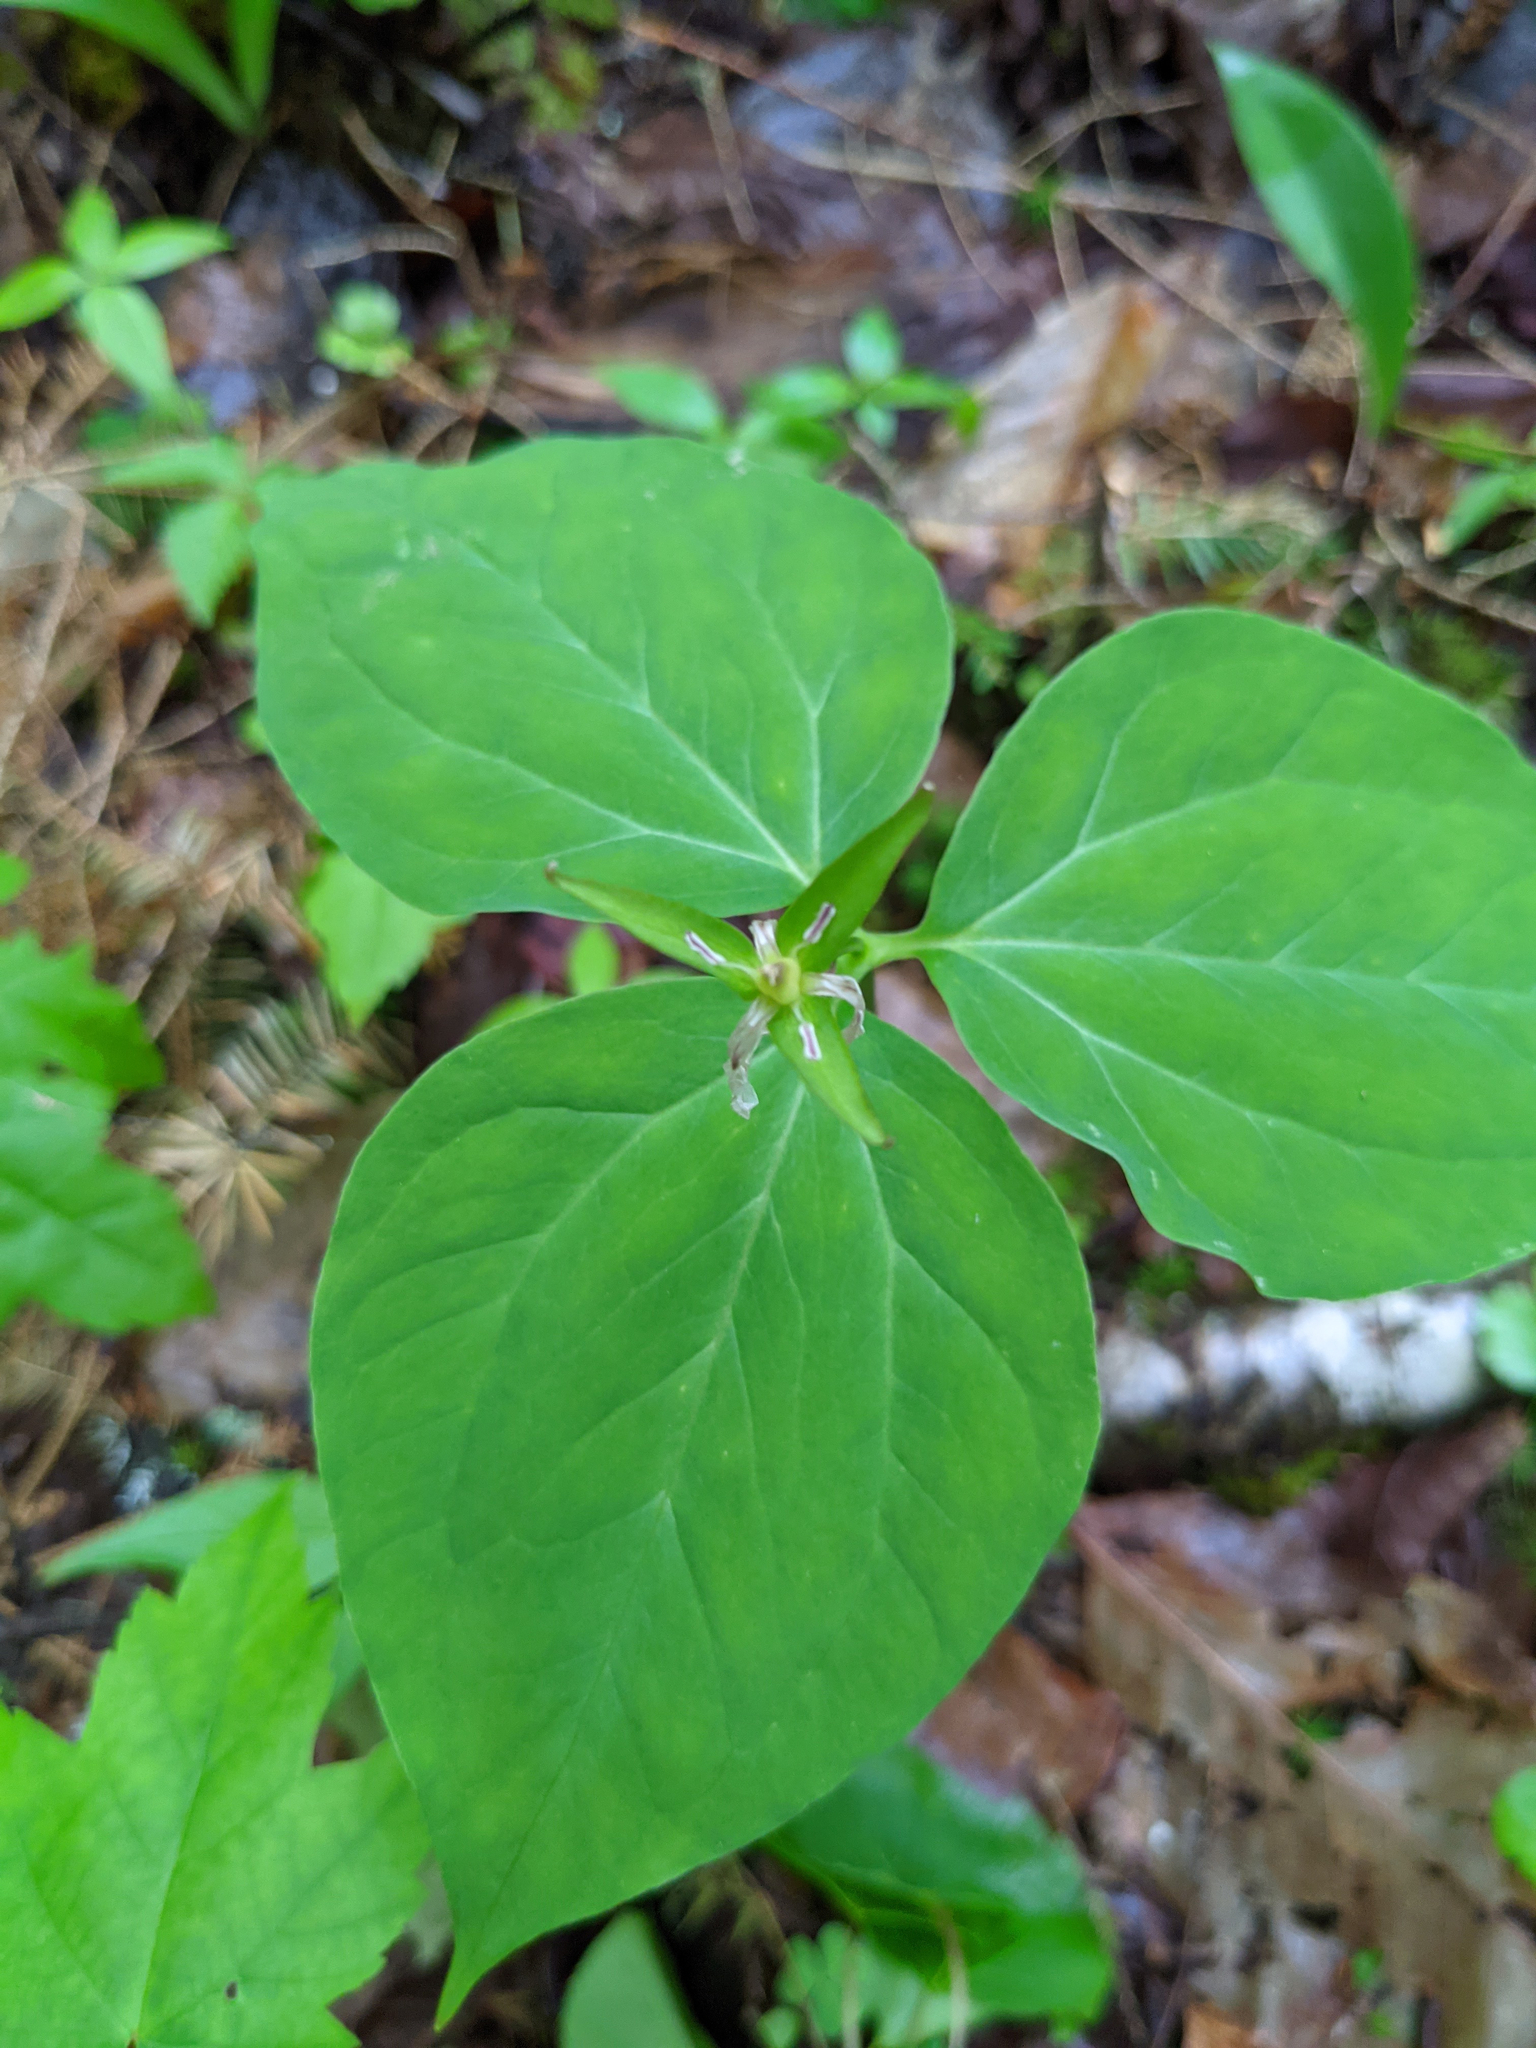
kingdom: Plantae
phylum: Tracheophyta
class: Liliopsida
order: Liliales
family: Melanthiaceae
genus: Trillium
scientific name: Trillium undulatum
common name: Paint trillium
